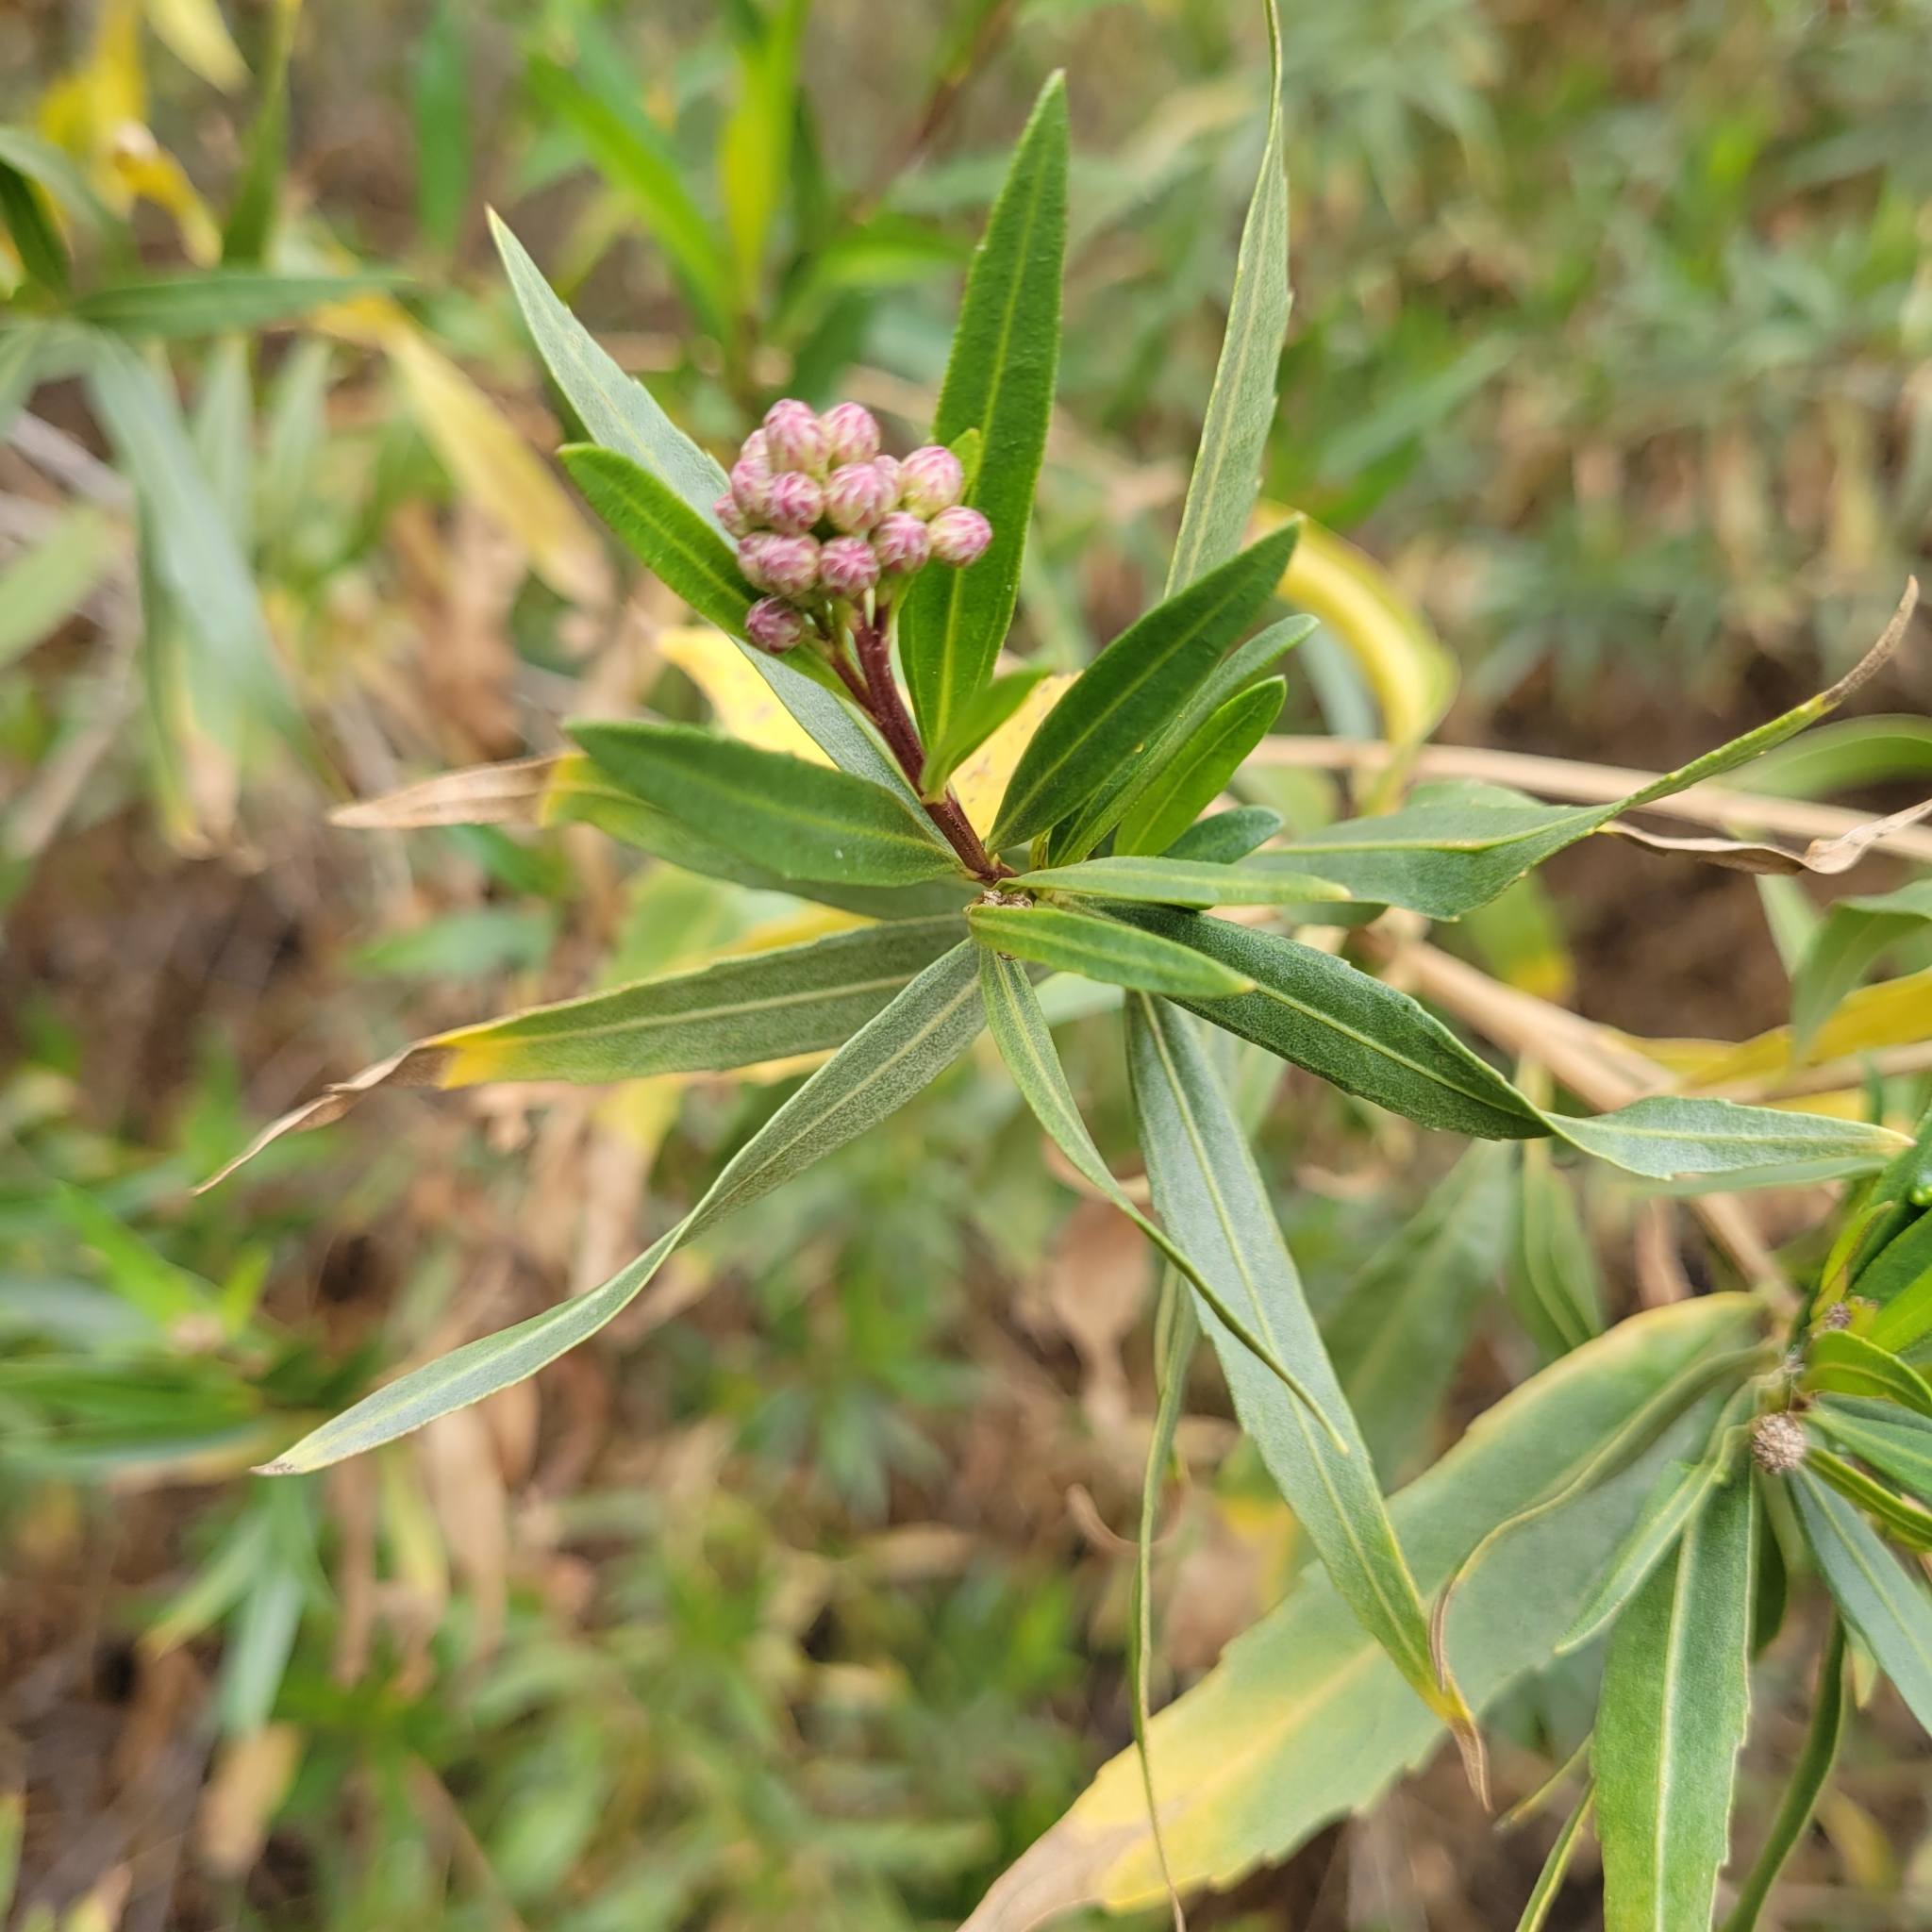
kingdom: Plantae
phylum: Tracheophyta
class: Magnoliopsida
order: Asterales
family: Asteraceae
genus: Baccharis
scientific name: Baccharis salicifolia
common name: Sticky baccharis
